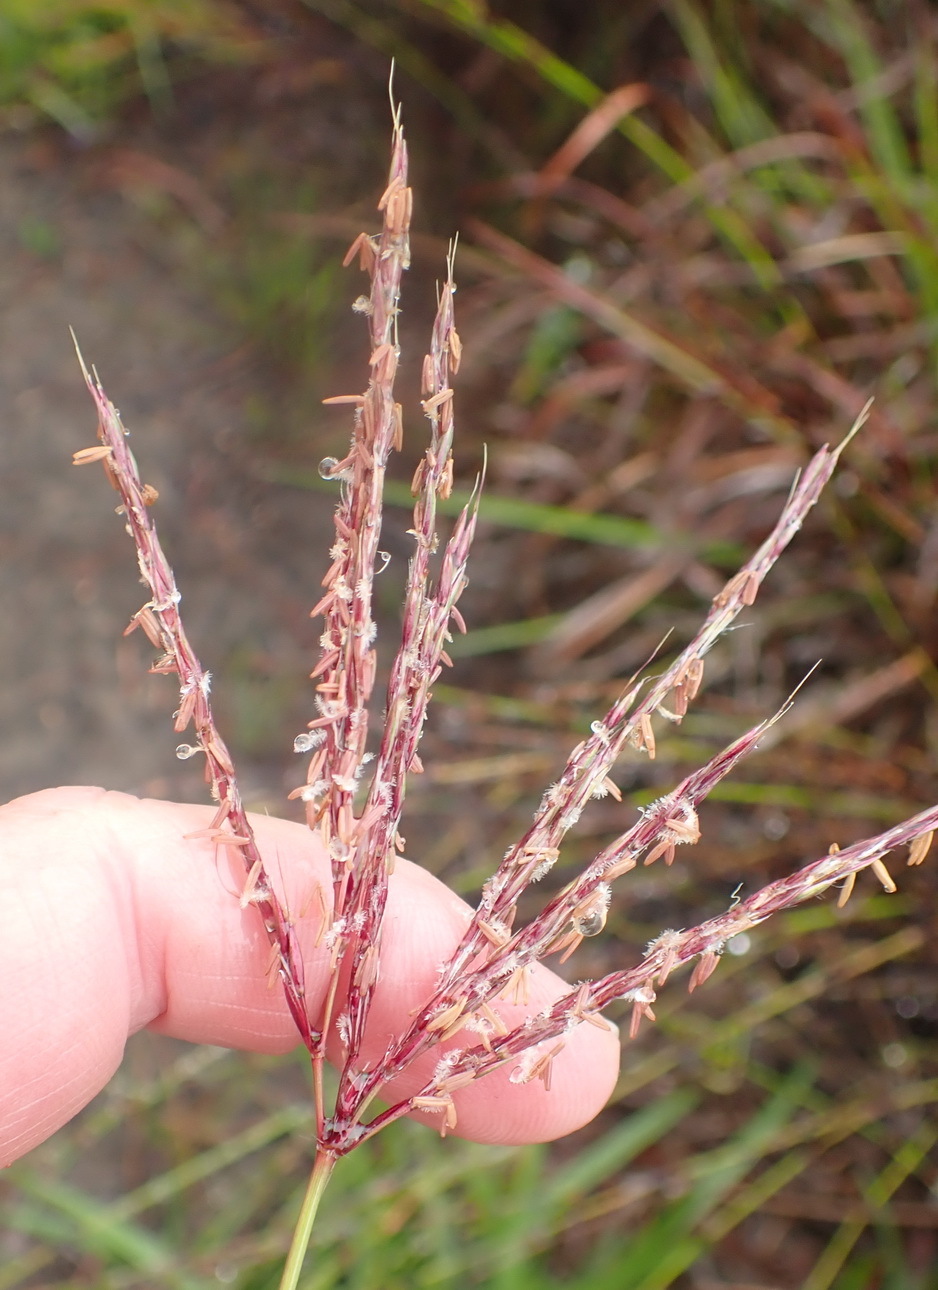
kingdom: Plantae
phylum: Tracheophyta
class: Liliopsida
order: Poales
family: Poaceae
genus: Digitaria
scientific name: Digitaria eriantha
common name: Digitgrass
